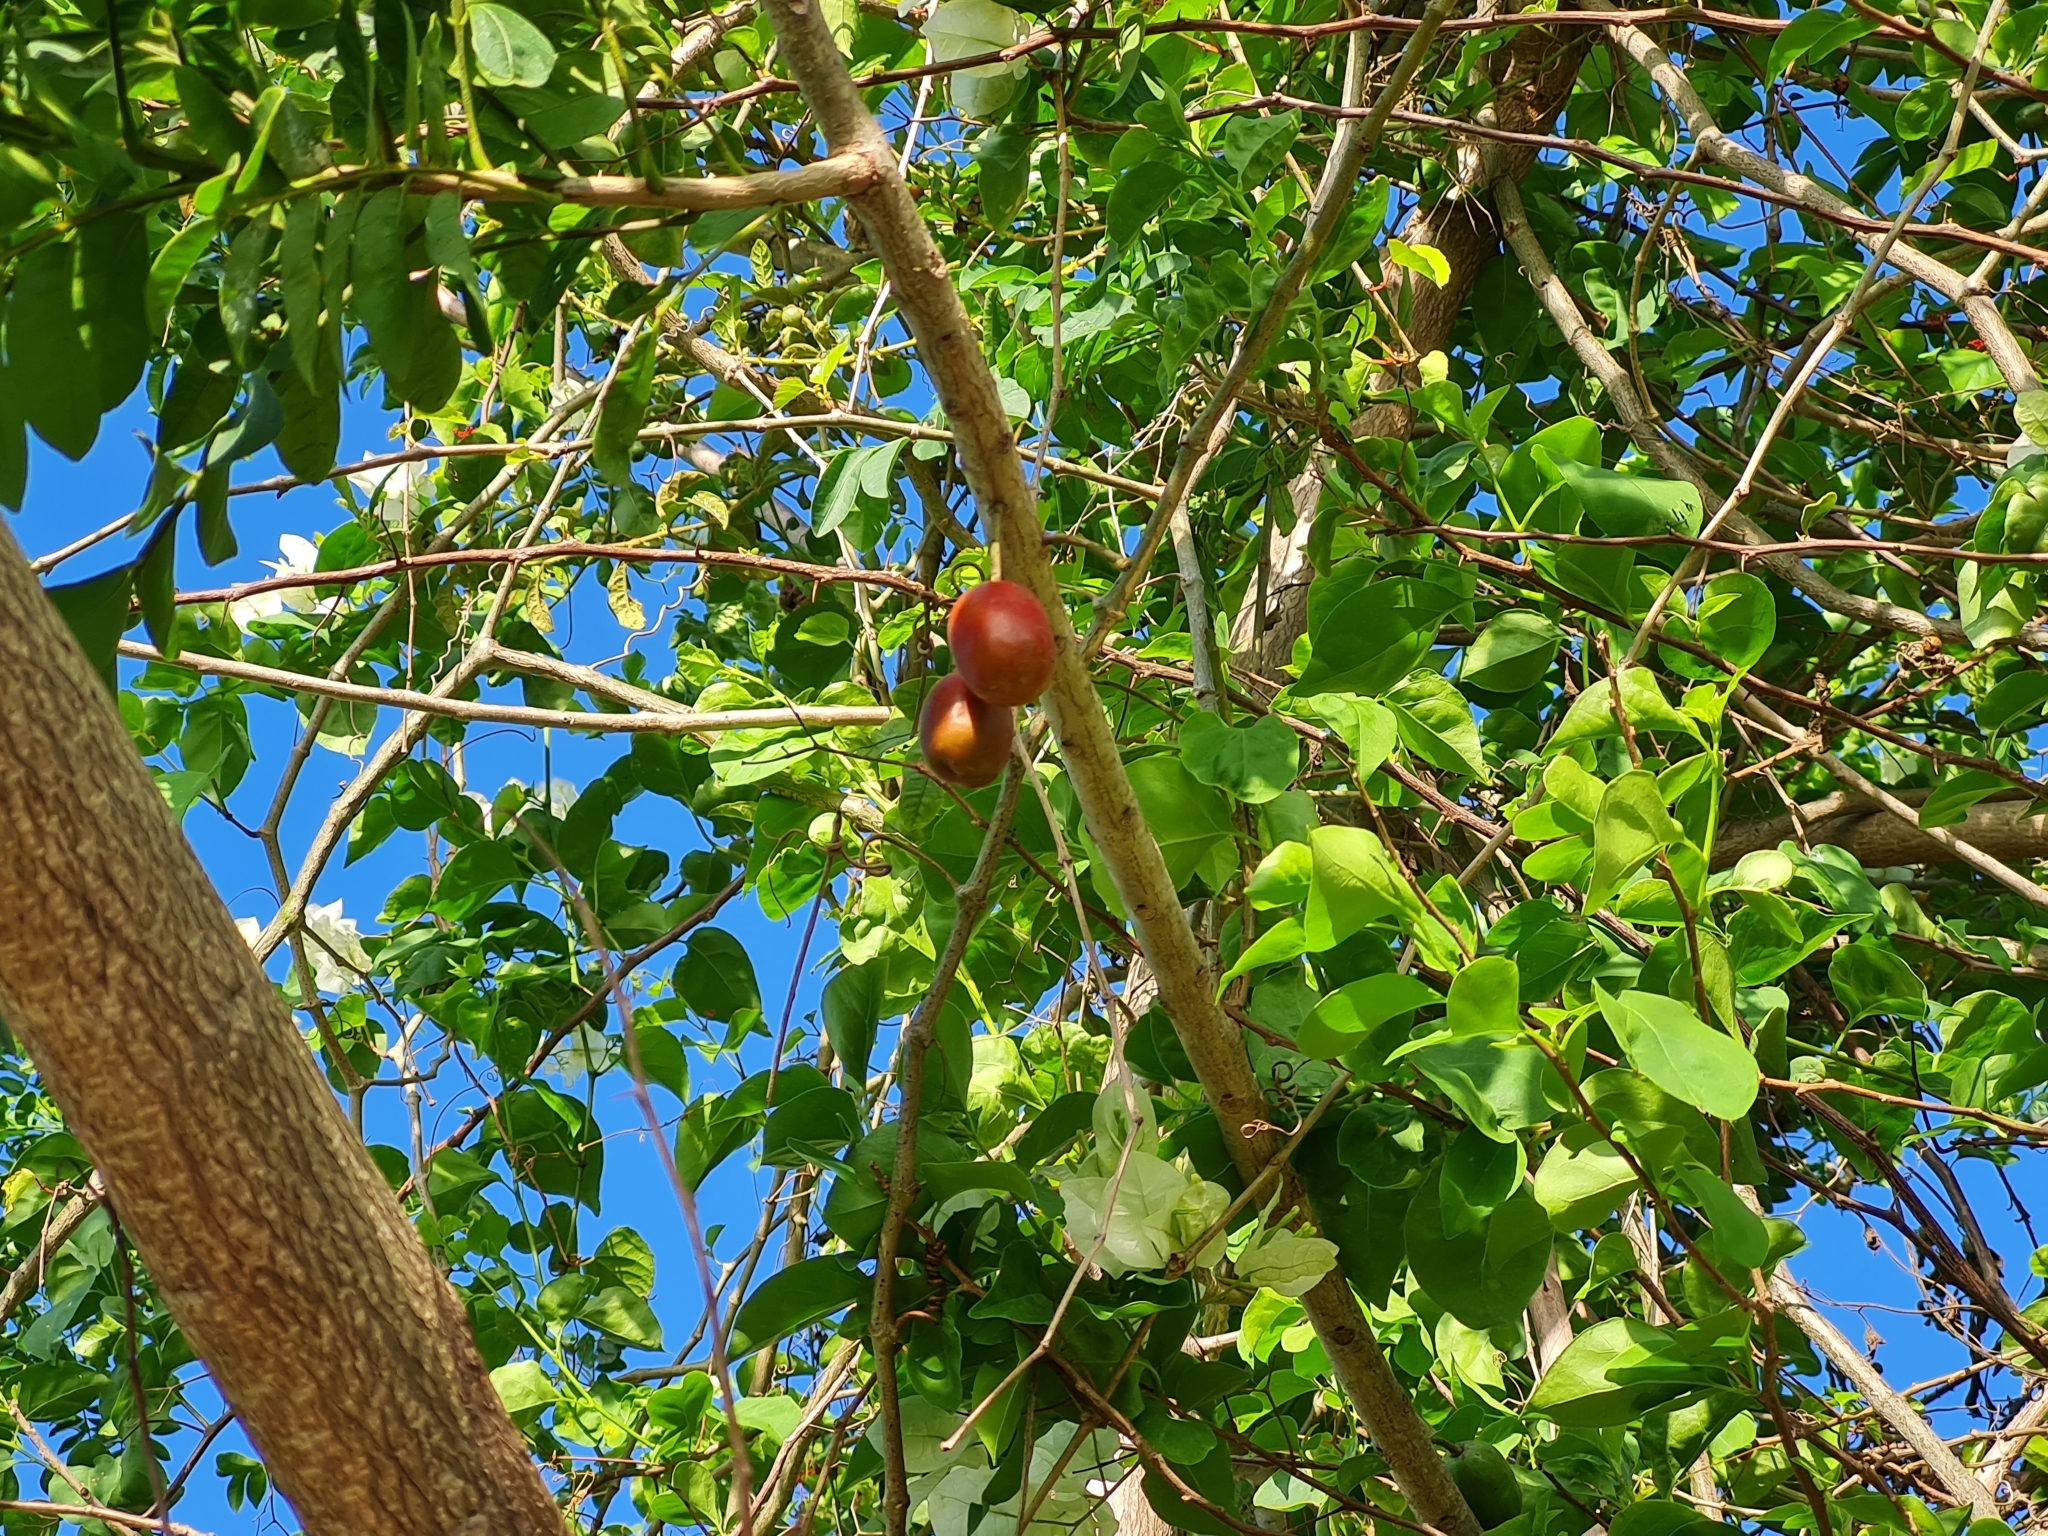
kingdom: Plantae
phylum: Tracheophyta
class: Magnoliopsida
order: Sapindales
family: Anacardiaceae
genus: Spondias
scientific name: Spondias purpurea
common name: Purple mombin
